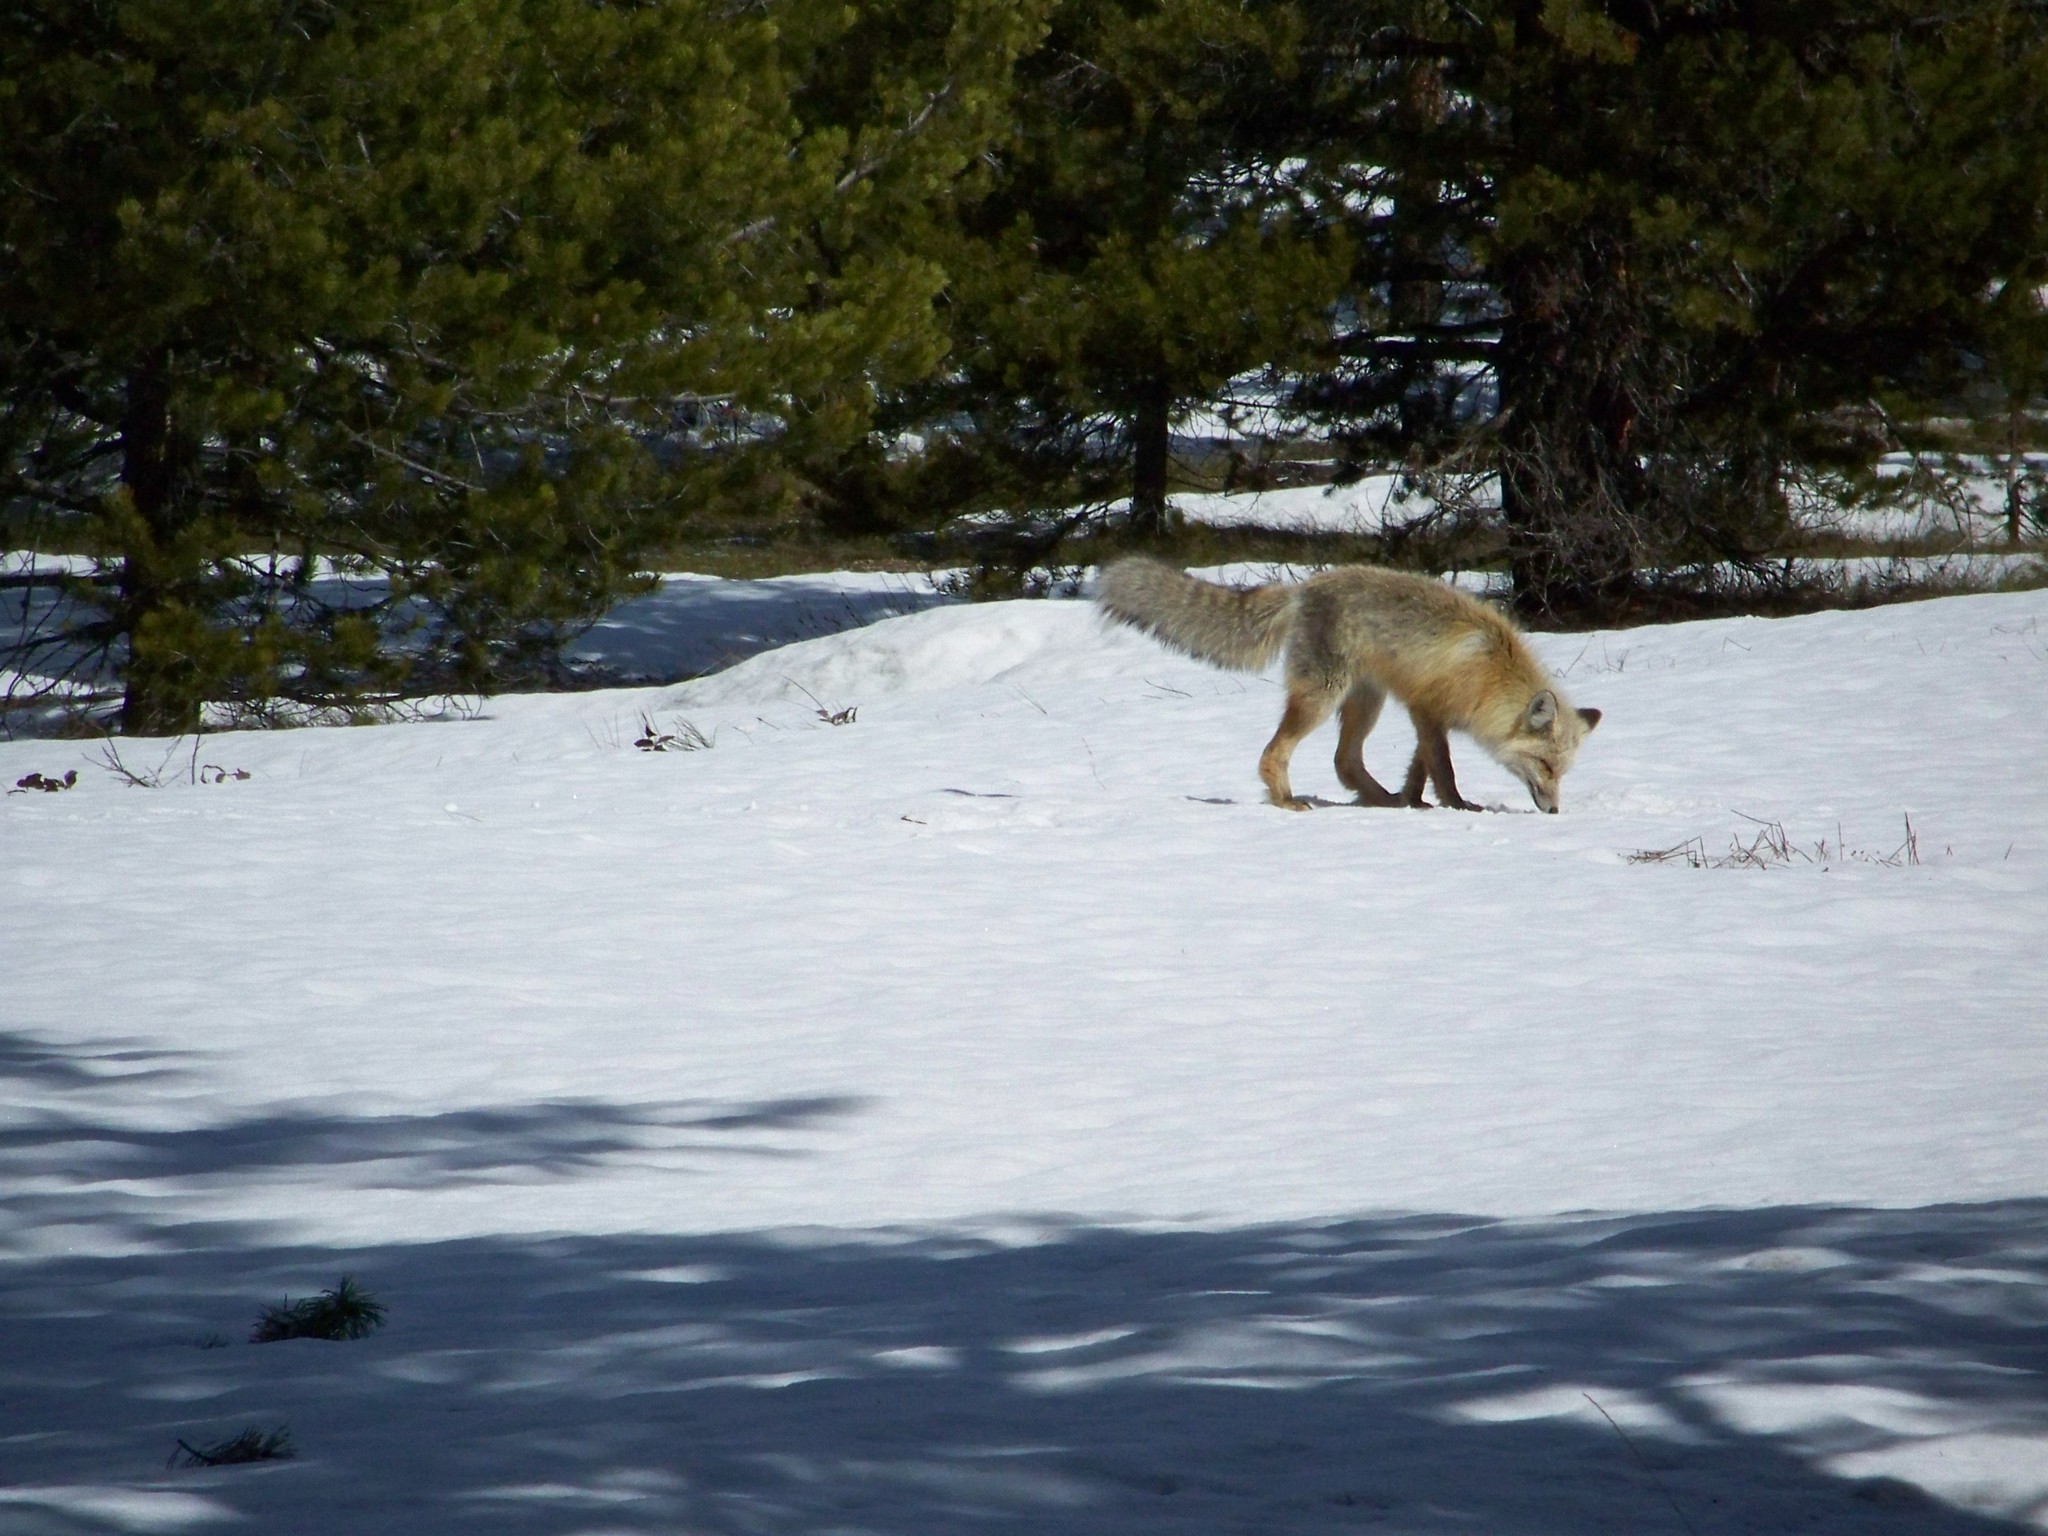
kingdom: Animalia
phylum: Chordata
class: Mammalia
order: Carnivora
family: Canidae
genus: Vulpes
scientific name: Vulpes vulpes
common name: Red fox
